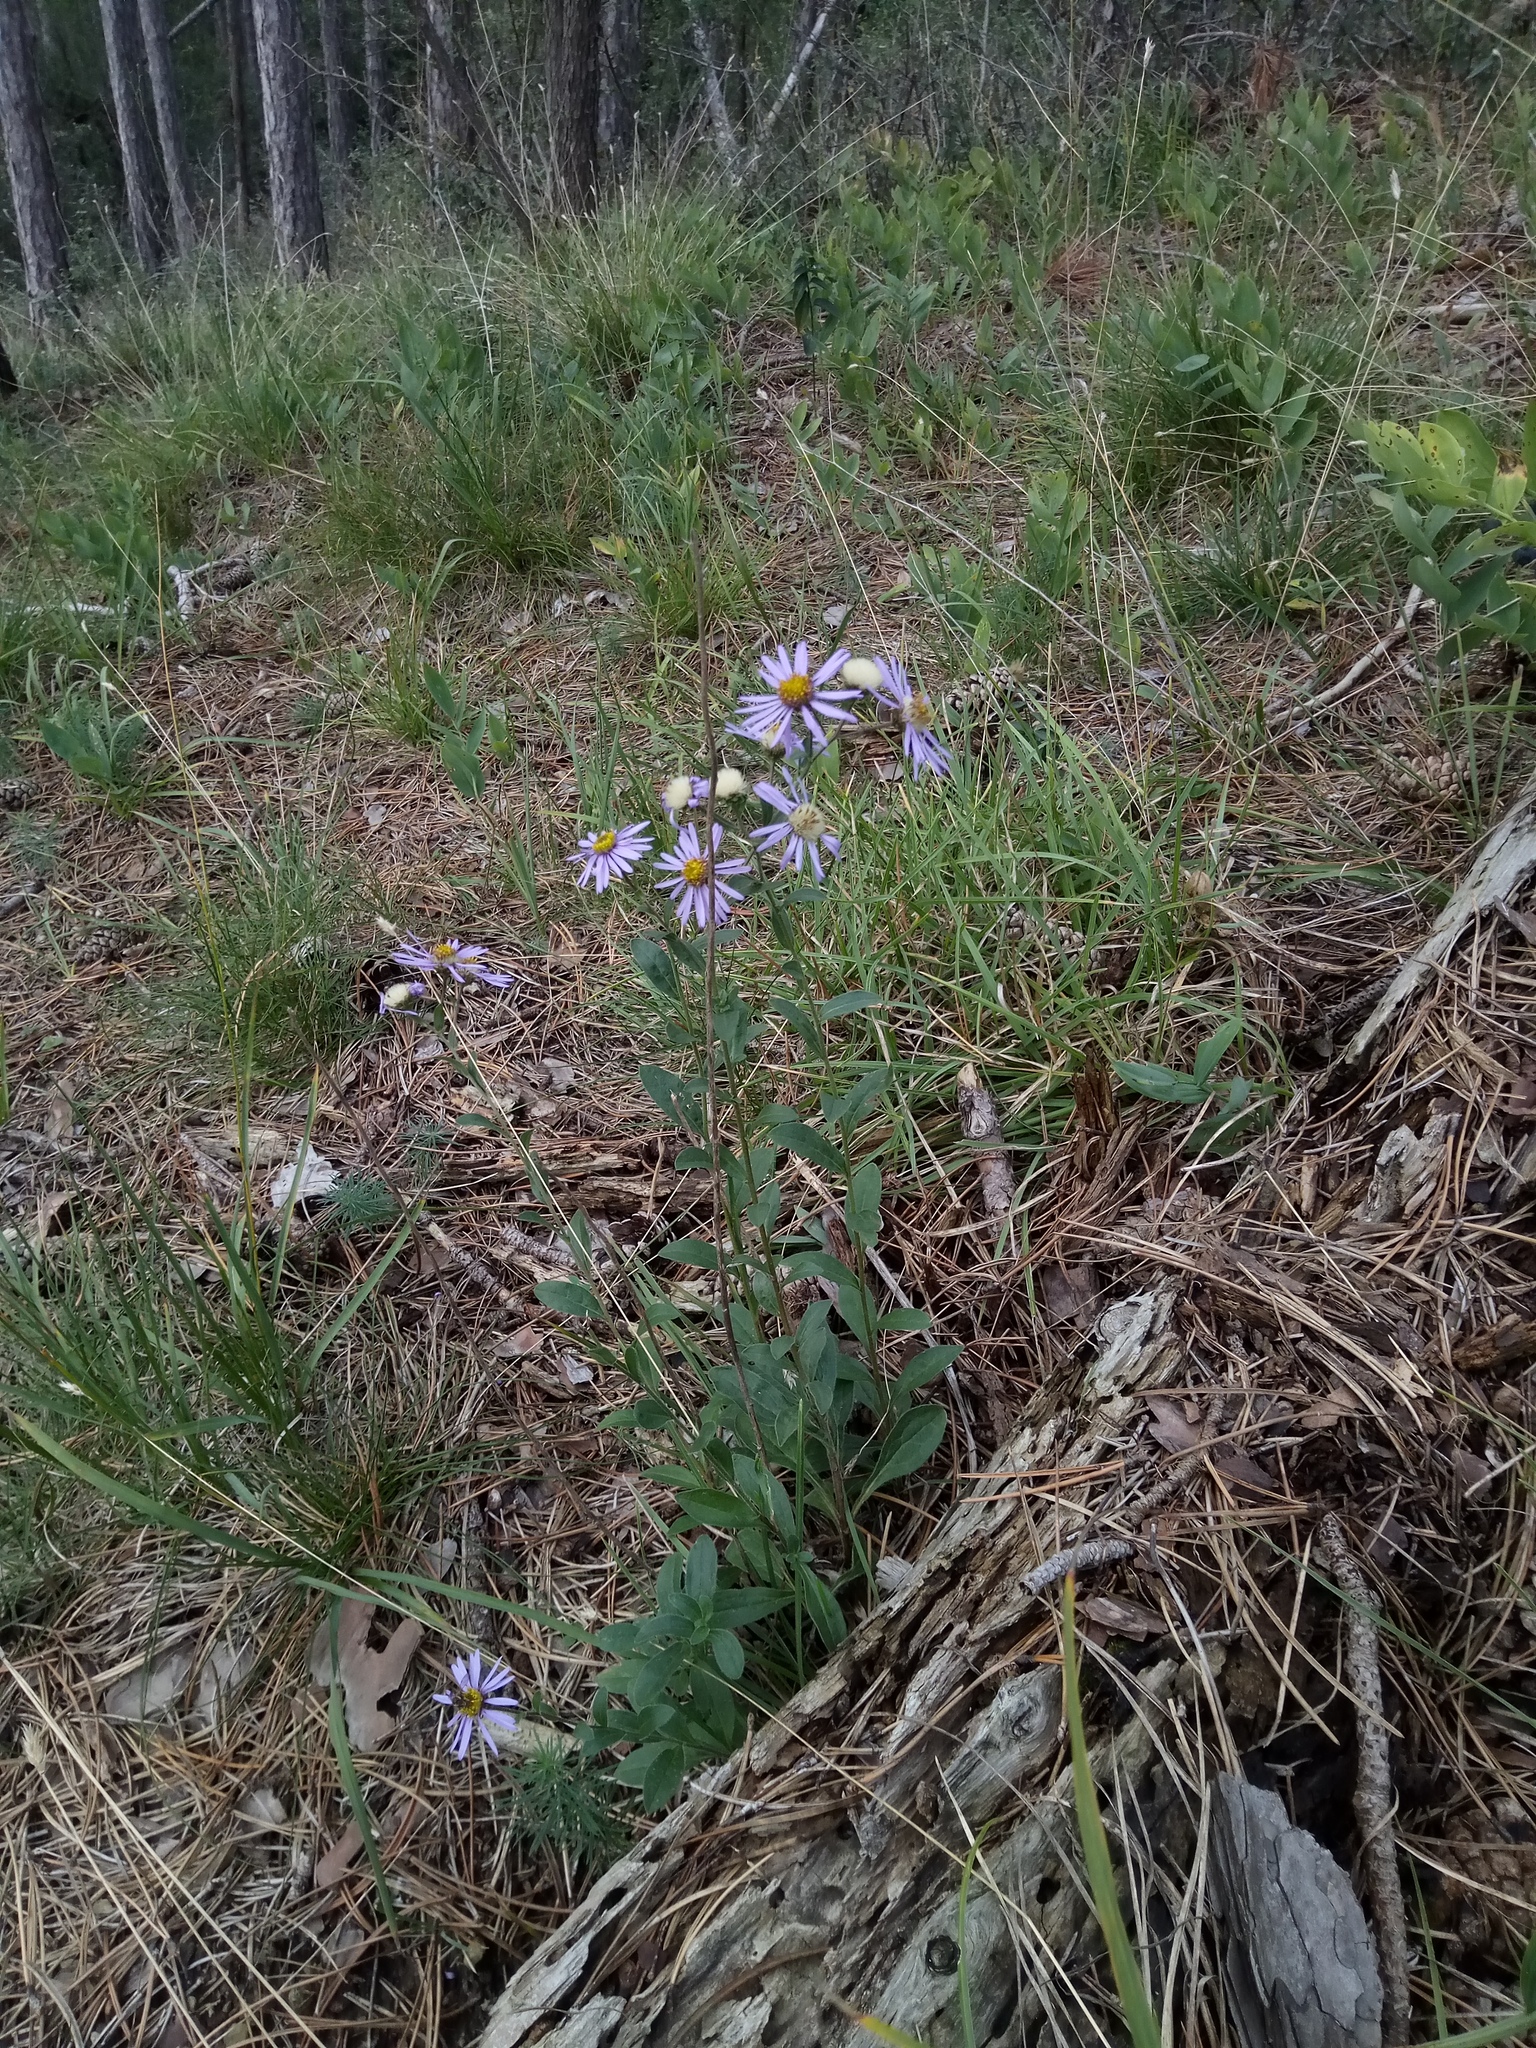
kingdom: Plantae
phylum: Tracheophyta
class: Magnoliopsida
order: Asterales
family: Asteraceae
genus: Aster
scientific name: Aster amellus
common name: European michaelmas daisy
